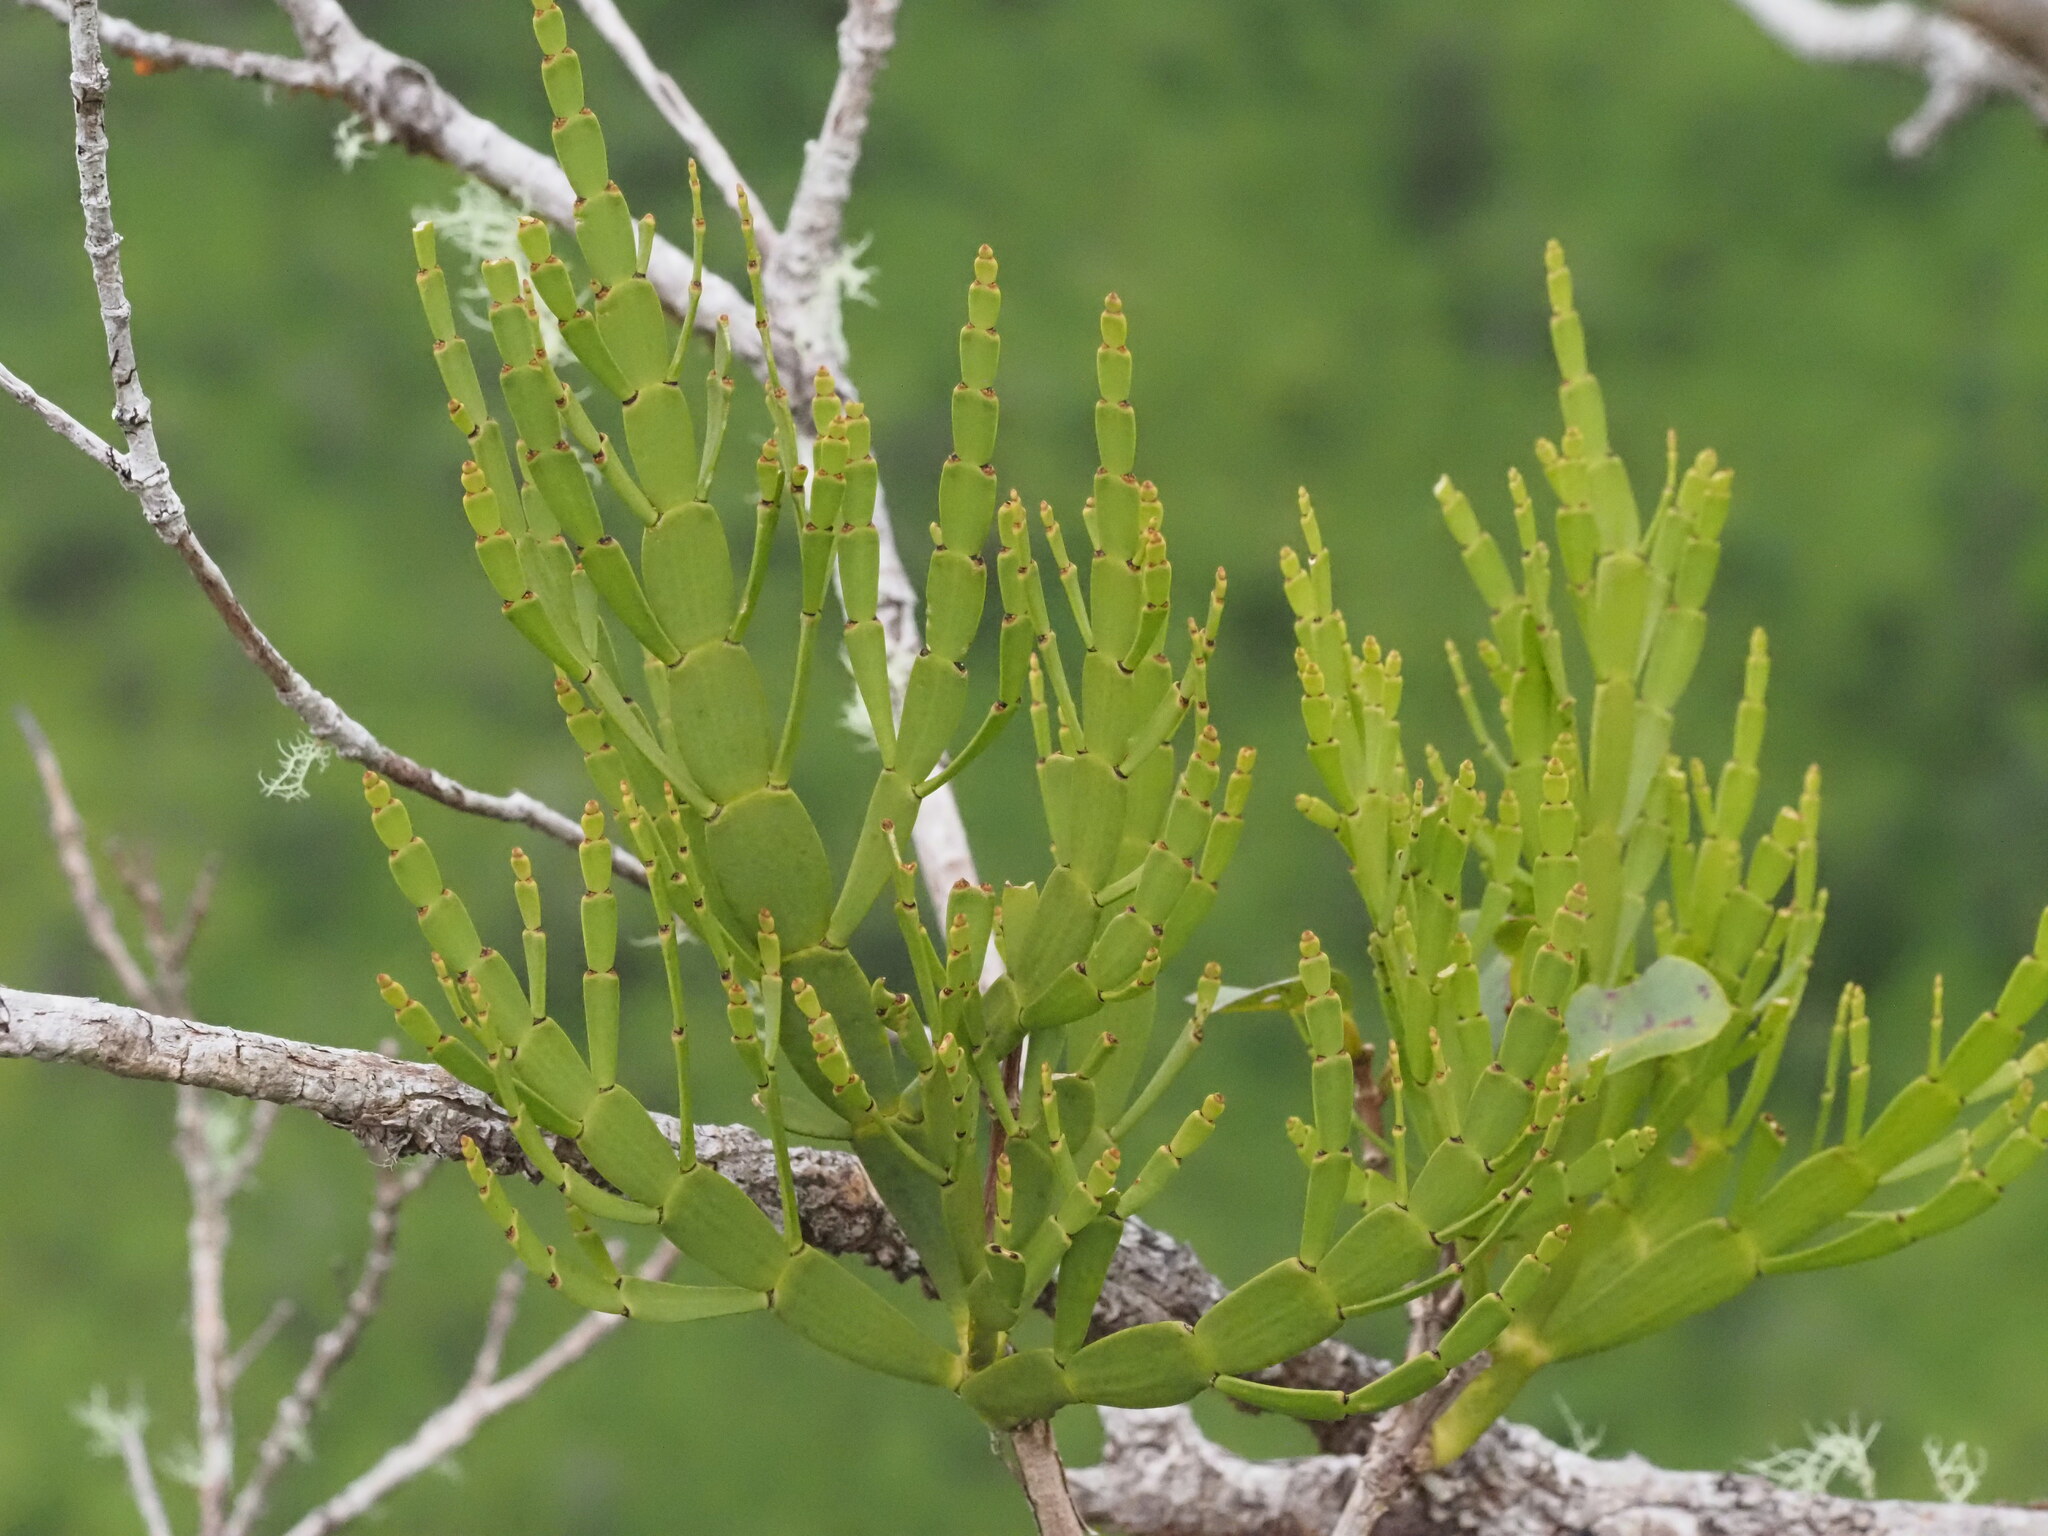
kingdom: Plantae
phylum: Tracheophyta
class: Magnoliopsida
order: Santalales
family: Viscaceae
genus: Korthalsella
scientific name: Korthalsella complanata
